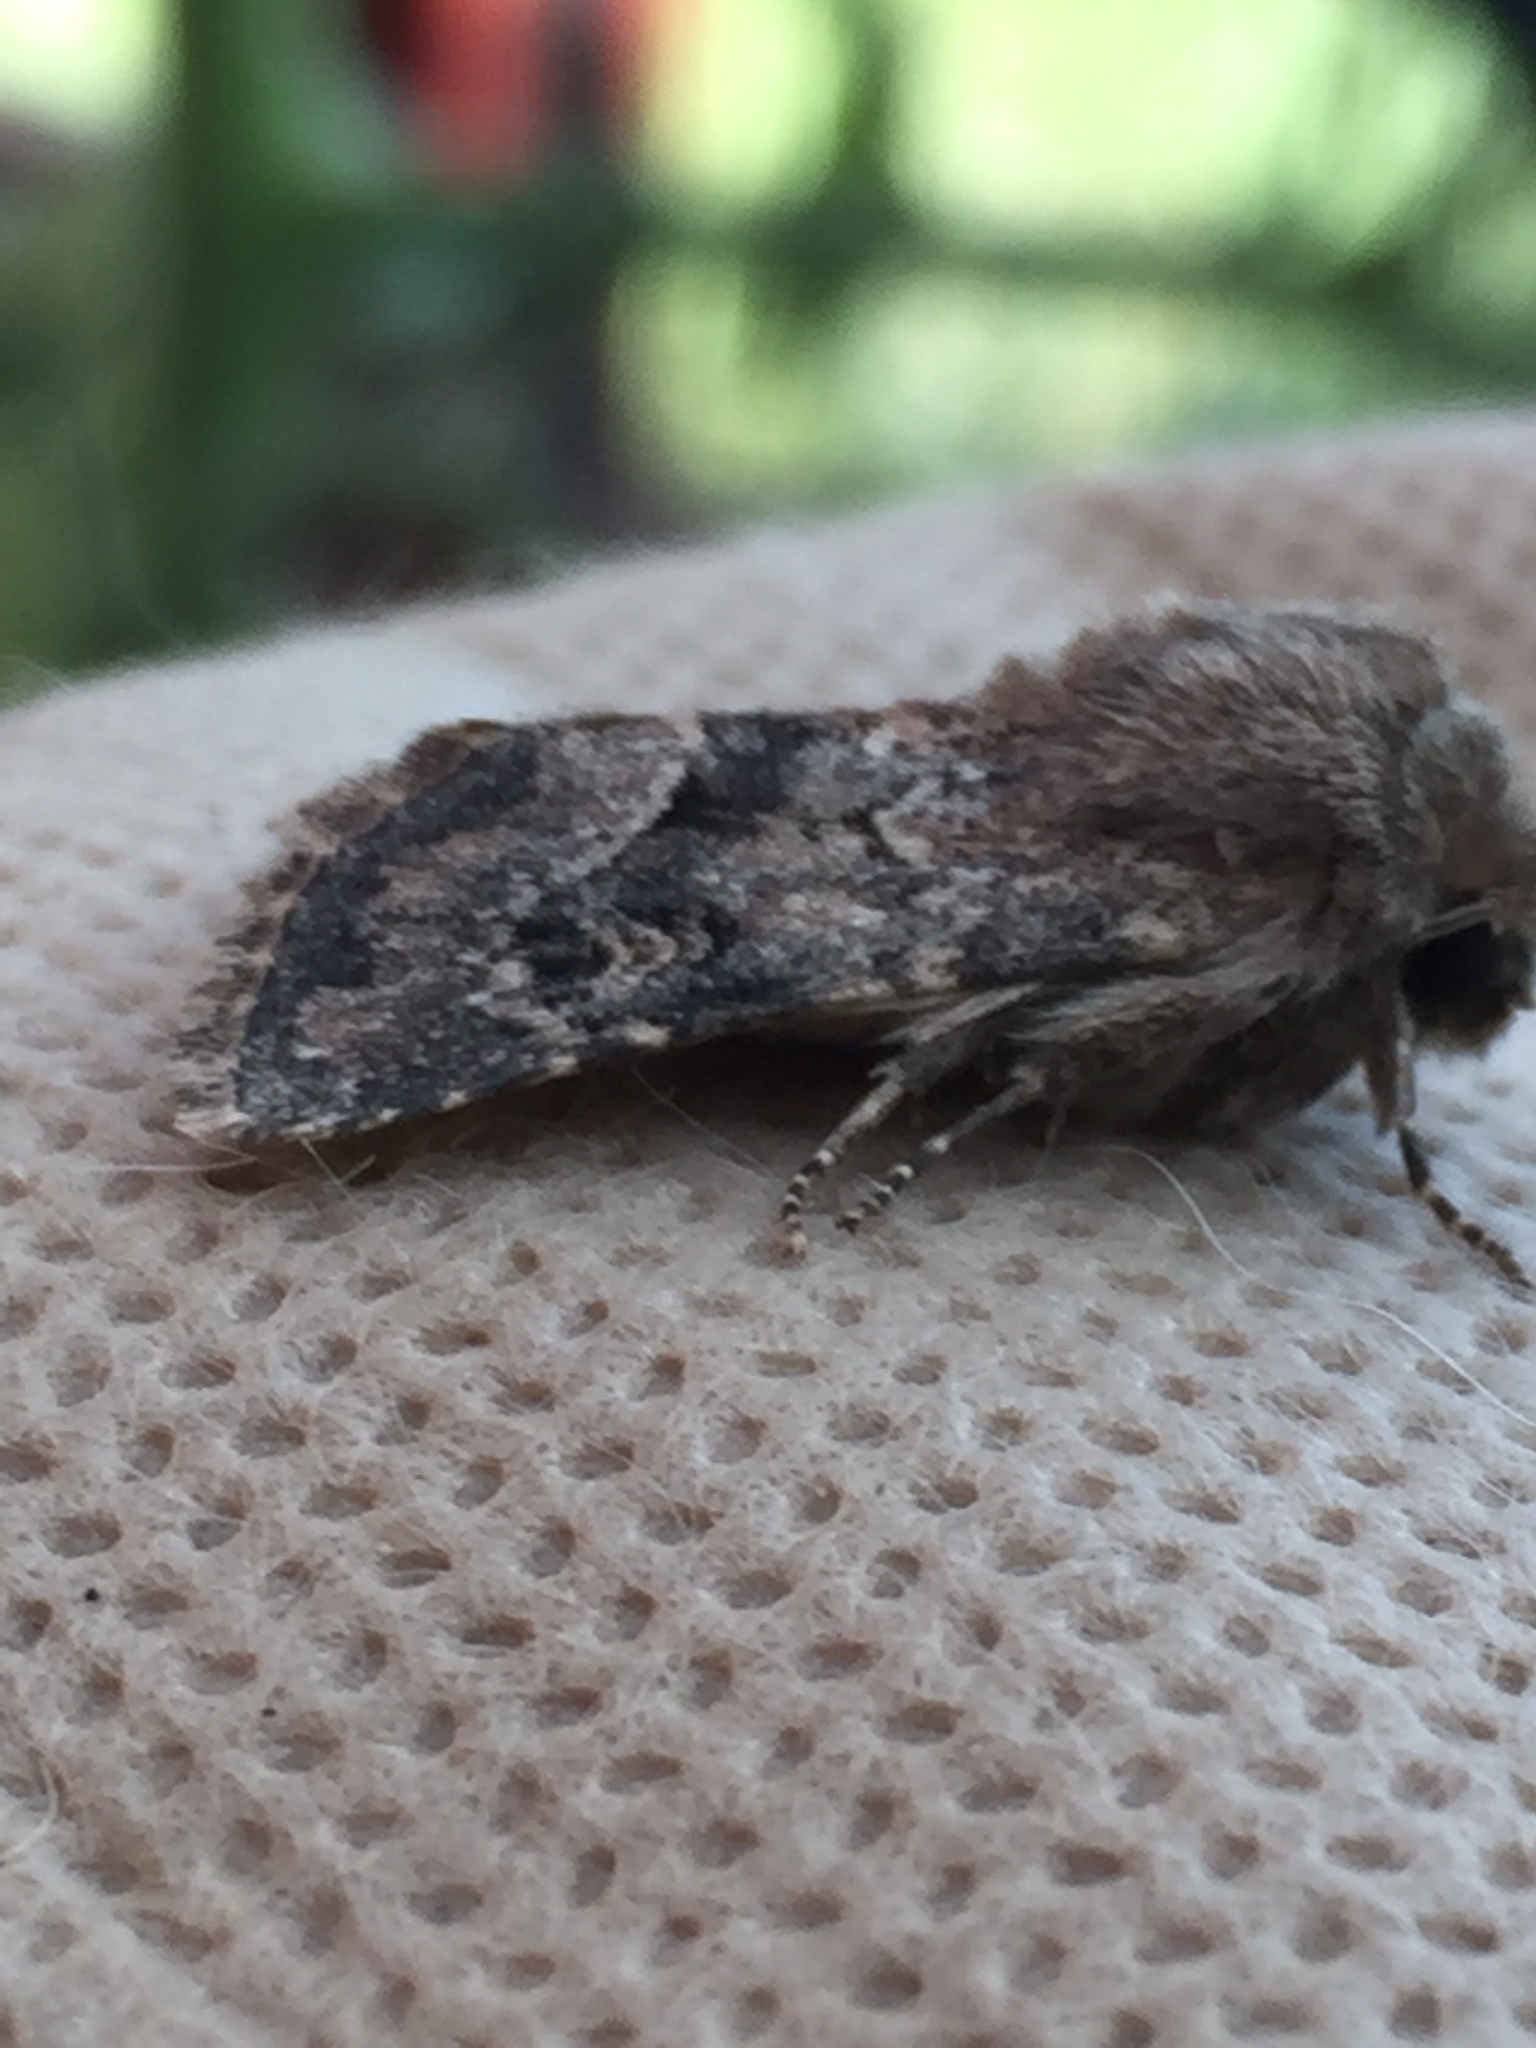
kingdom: Animalia
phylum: Arthropoda
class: Insecta
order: Lepidoptera
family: Noctuidae
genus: Luperina
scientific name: Luperina testacea
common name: Flounced rustic
